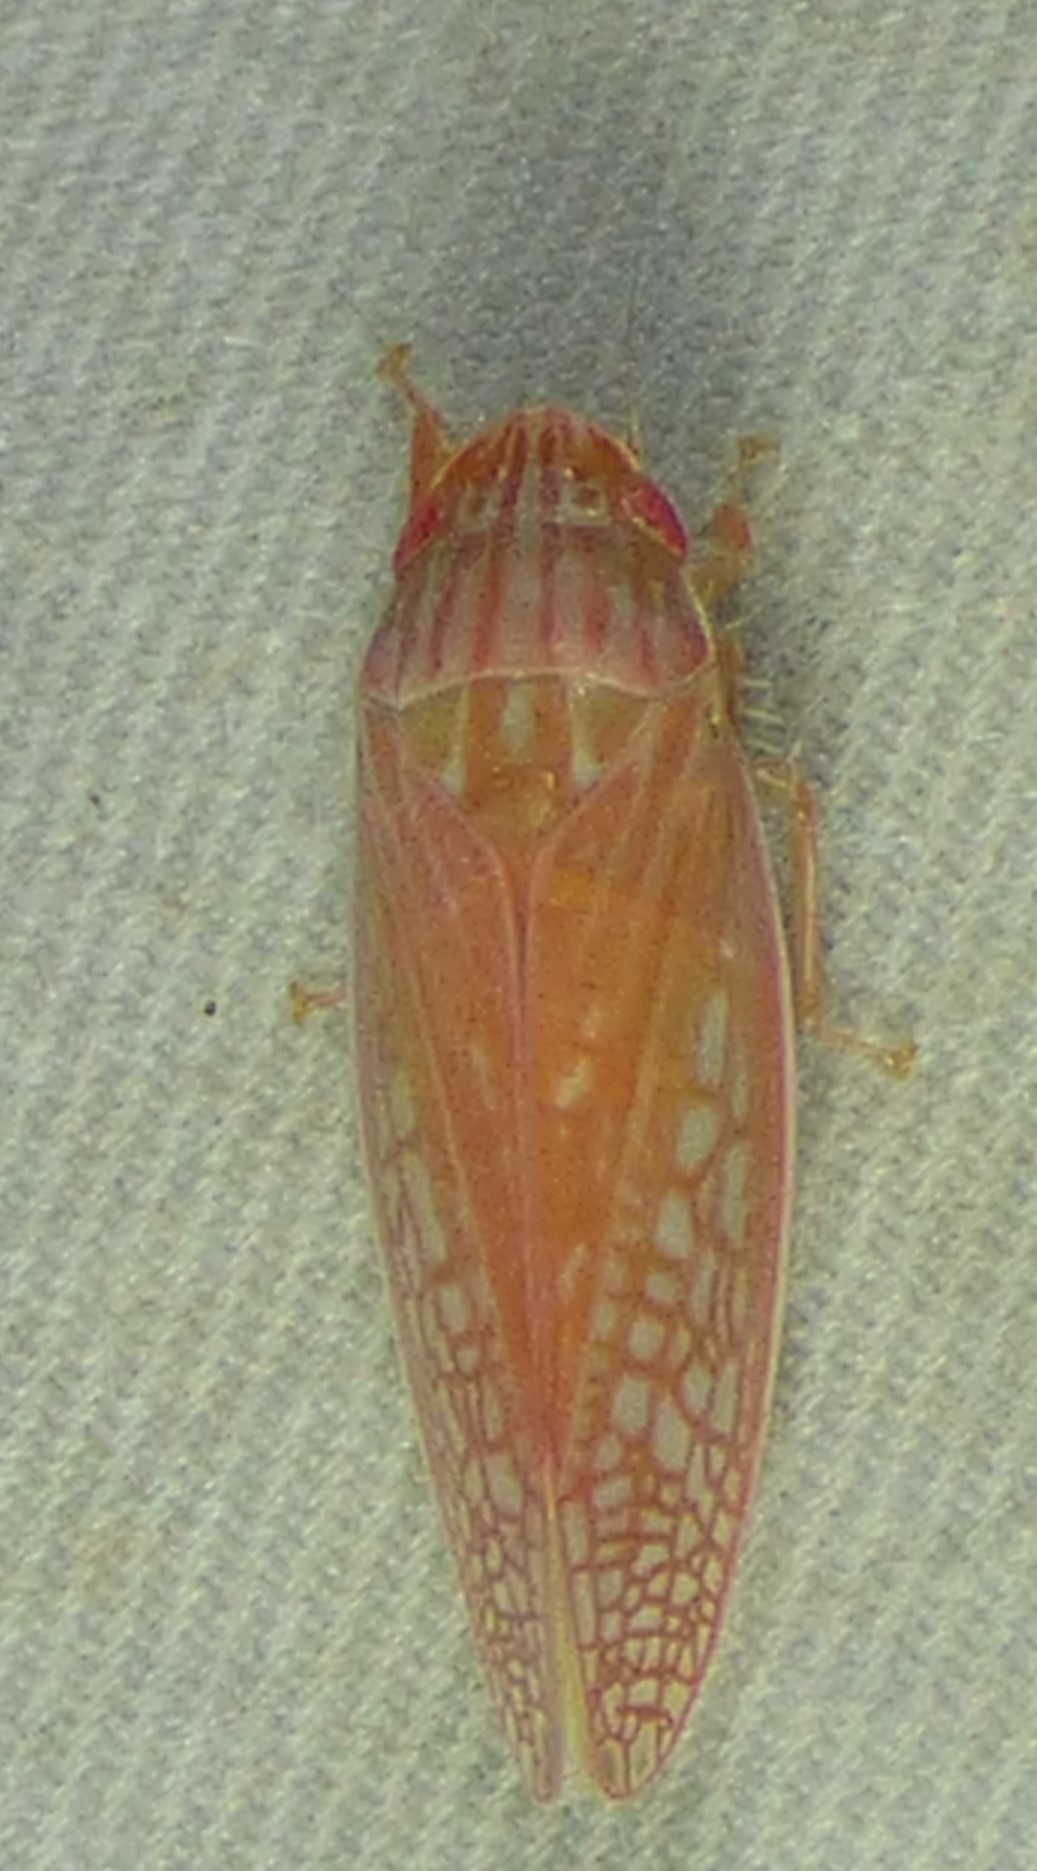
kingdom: Animalia
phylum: Arthropoda
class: Insecta
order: Hemiptera
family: Cicadellidae
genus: Gyponana
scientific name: Gyponana gladia
